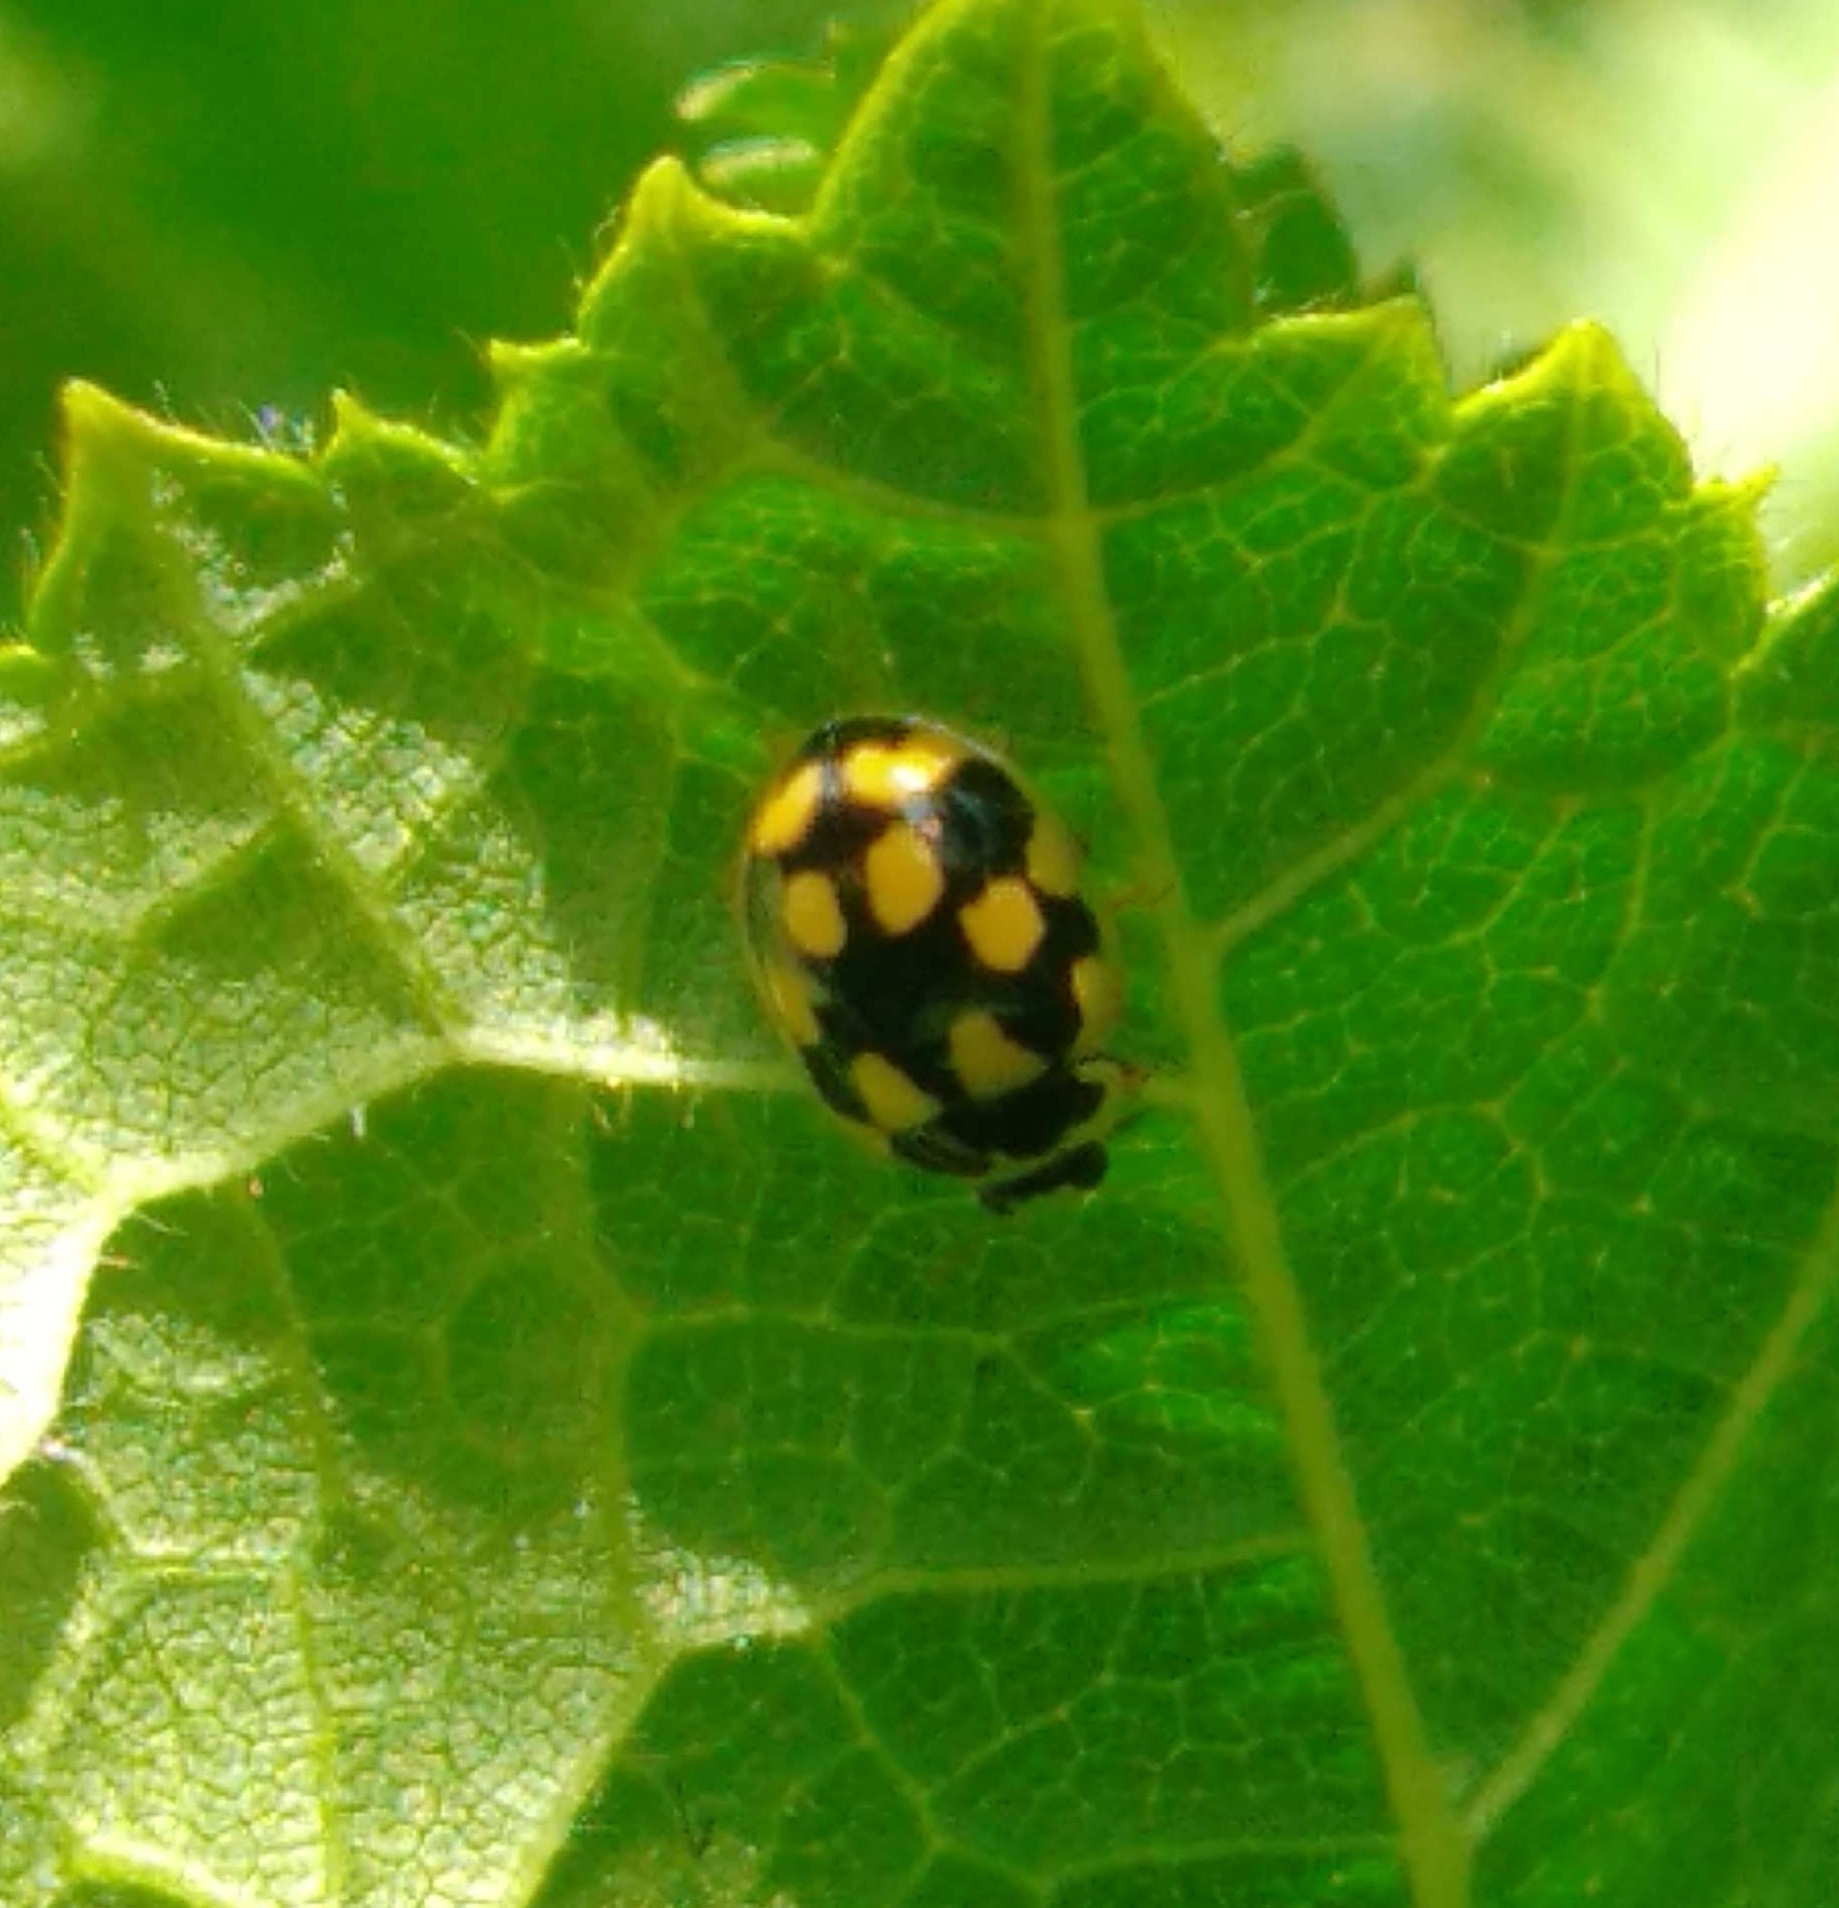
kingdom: Animalia
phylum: Arthropoda
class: Insecta
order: Coleoptera
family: Coccinellidae
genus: Propylaea
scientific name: Propylaea quatuordecimpunctata
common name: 14-spotted ladybird beetle
